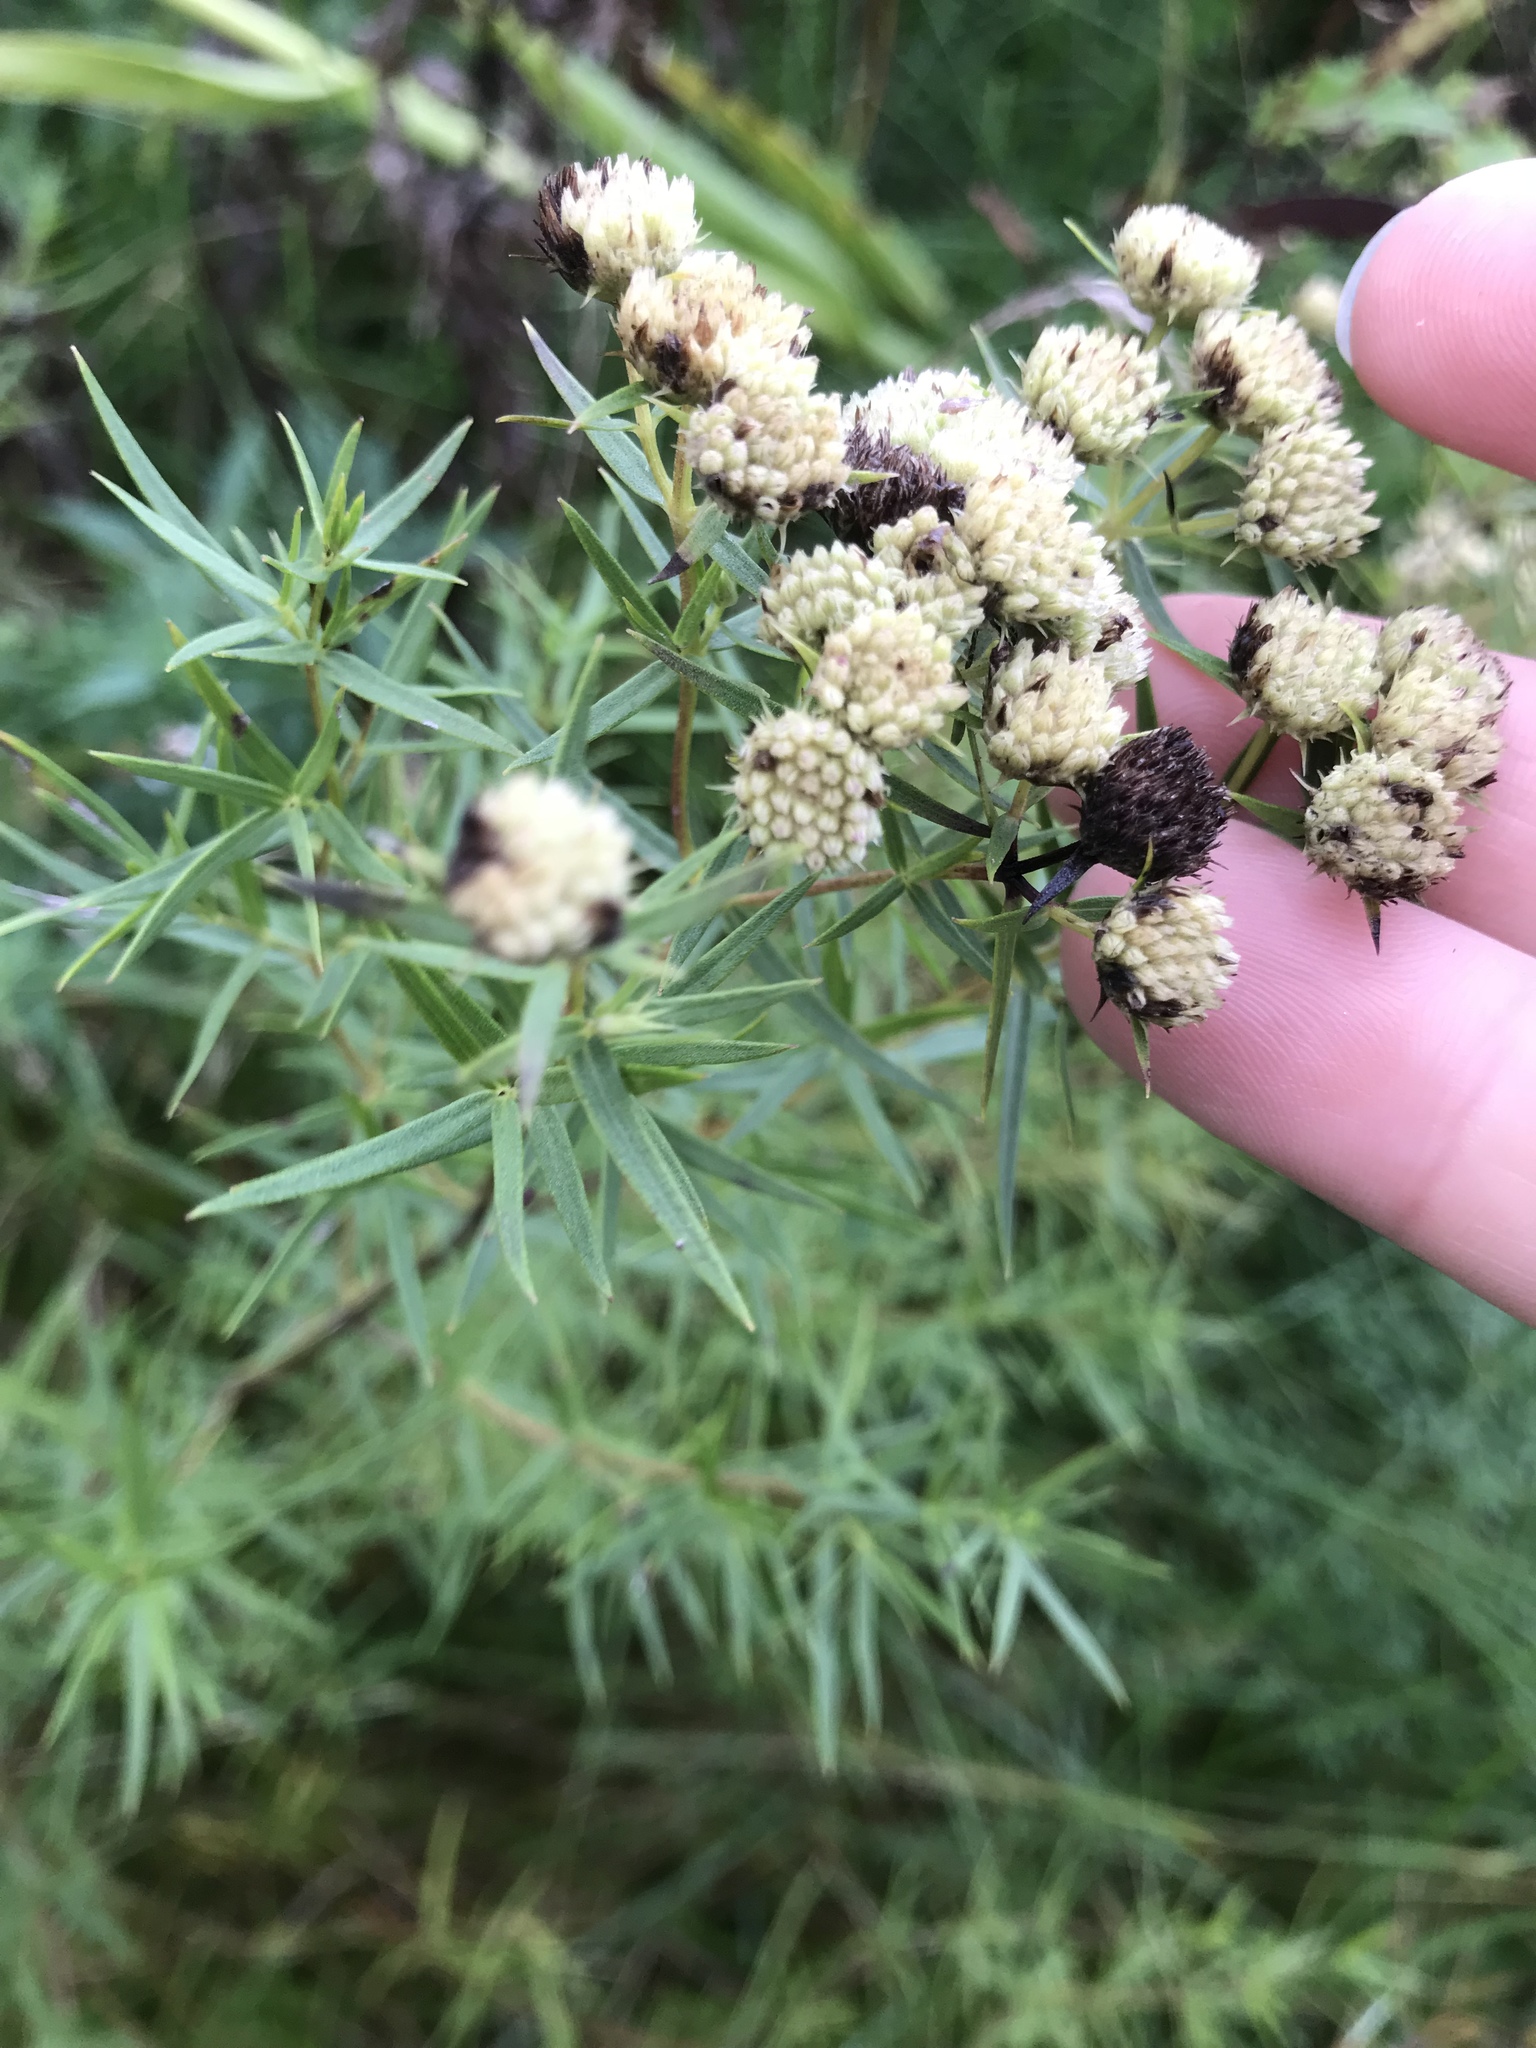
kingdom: Plantae
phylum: Tracheophyta
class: Magnoliopsida
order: Lamiales
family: Lamiaceae
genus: Pycnanthemum
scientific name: Pycnanthemum tenuifolium
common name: Narrow-leaf mountain-mint
